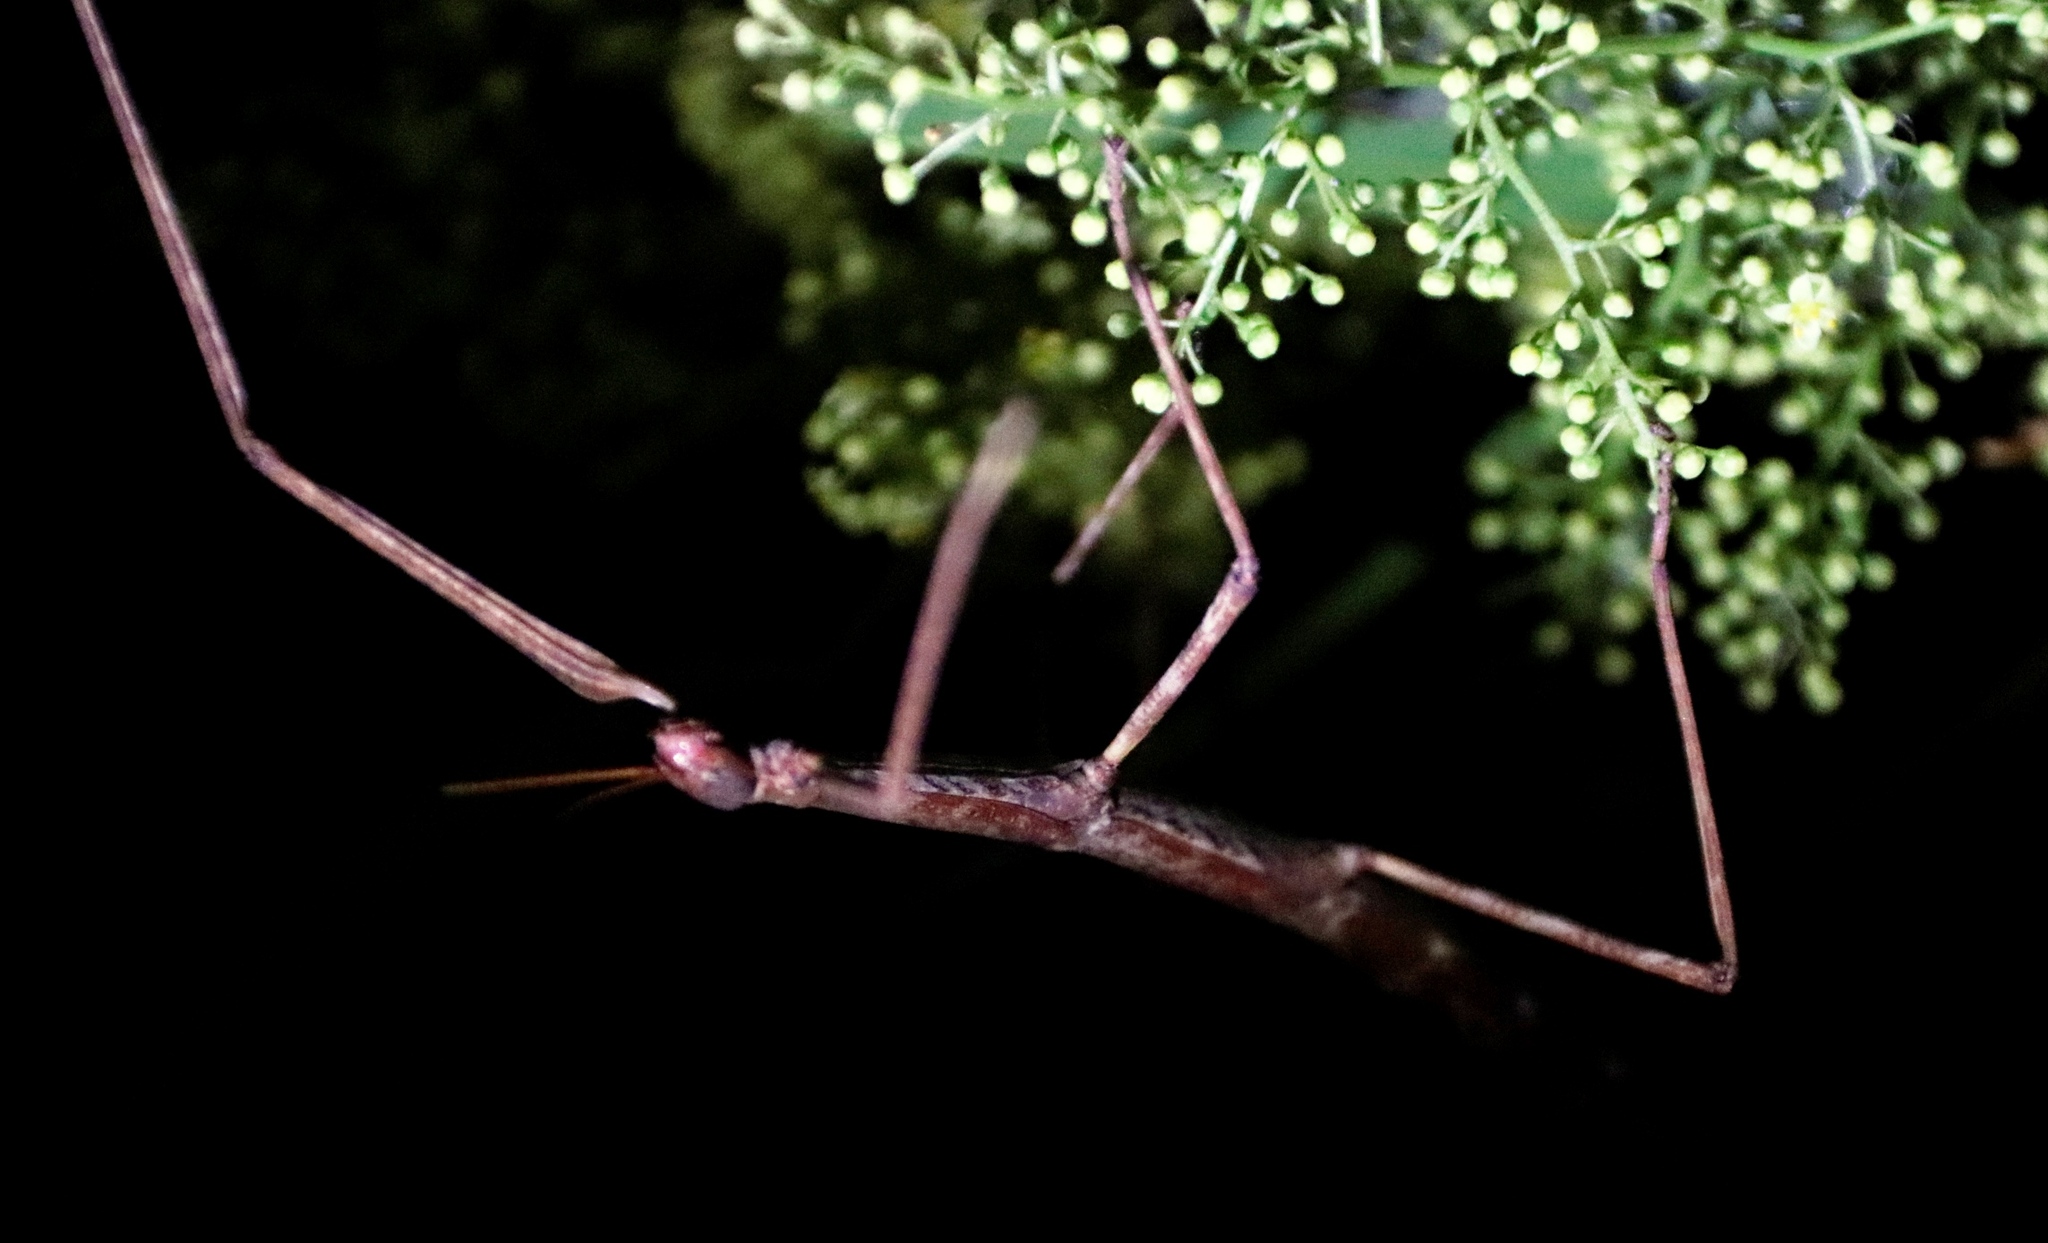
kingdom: Animalia
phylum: Arthropoda
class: Insecta
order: Phasmida
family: Bacillidae
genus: Phalces
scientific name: Phalces brevis
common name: Cape stick insect
